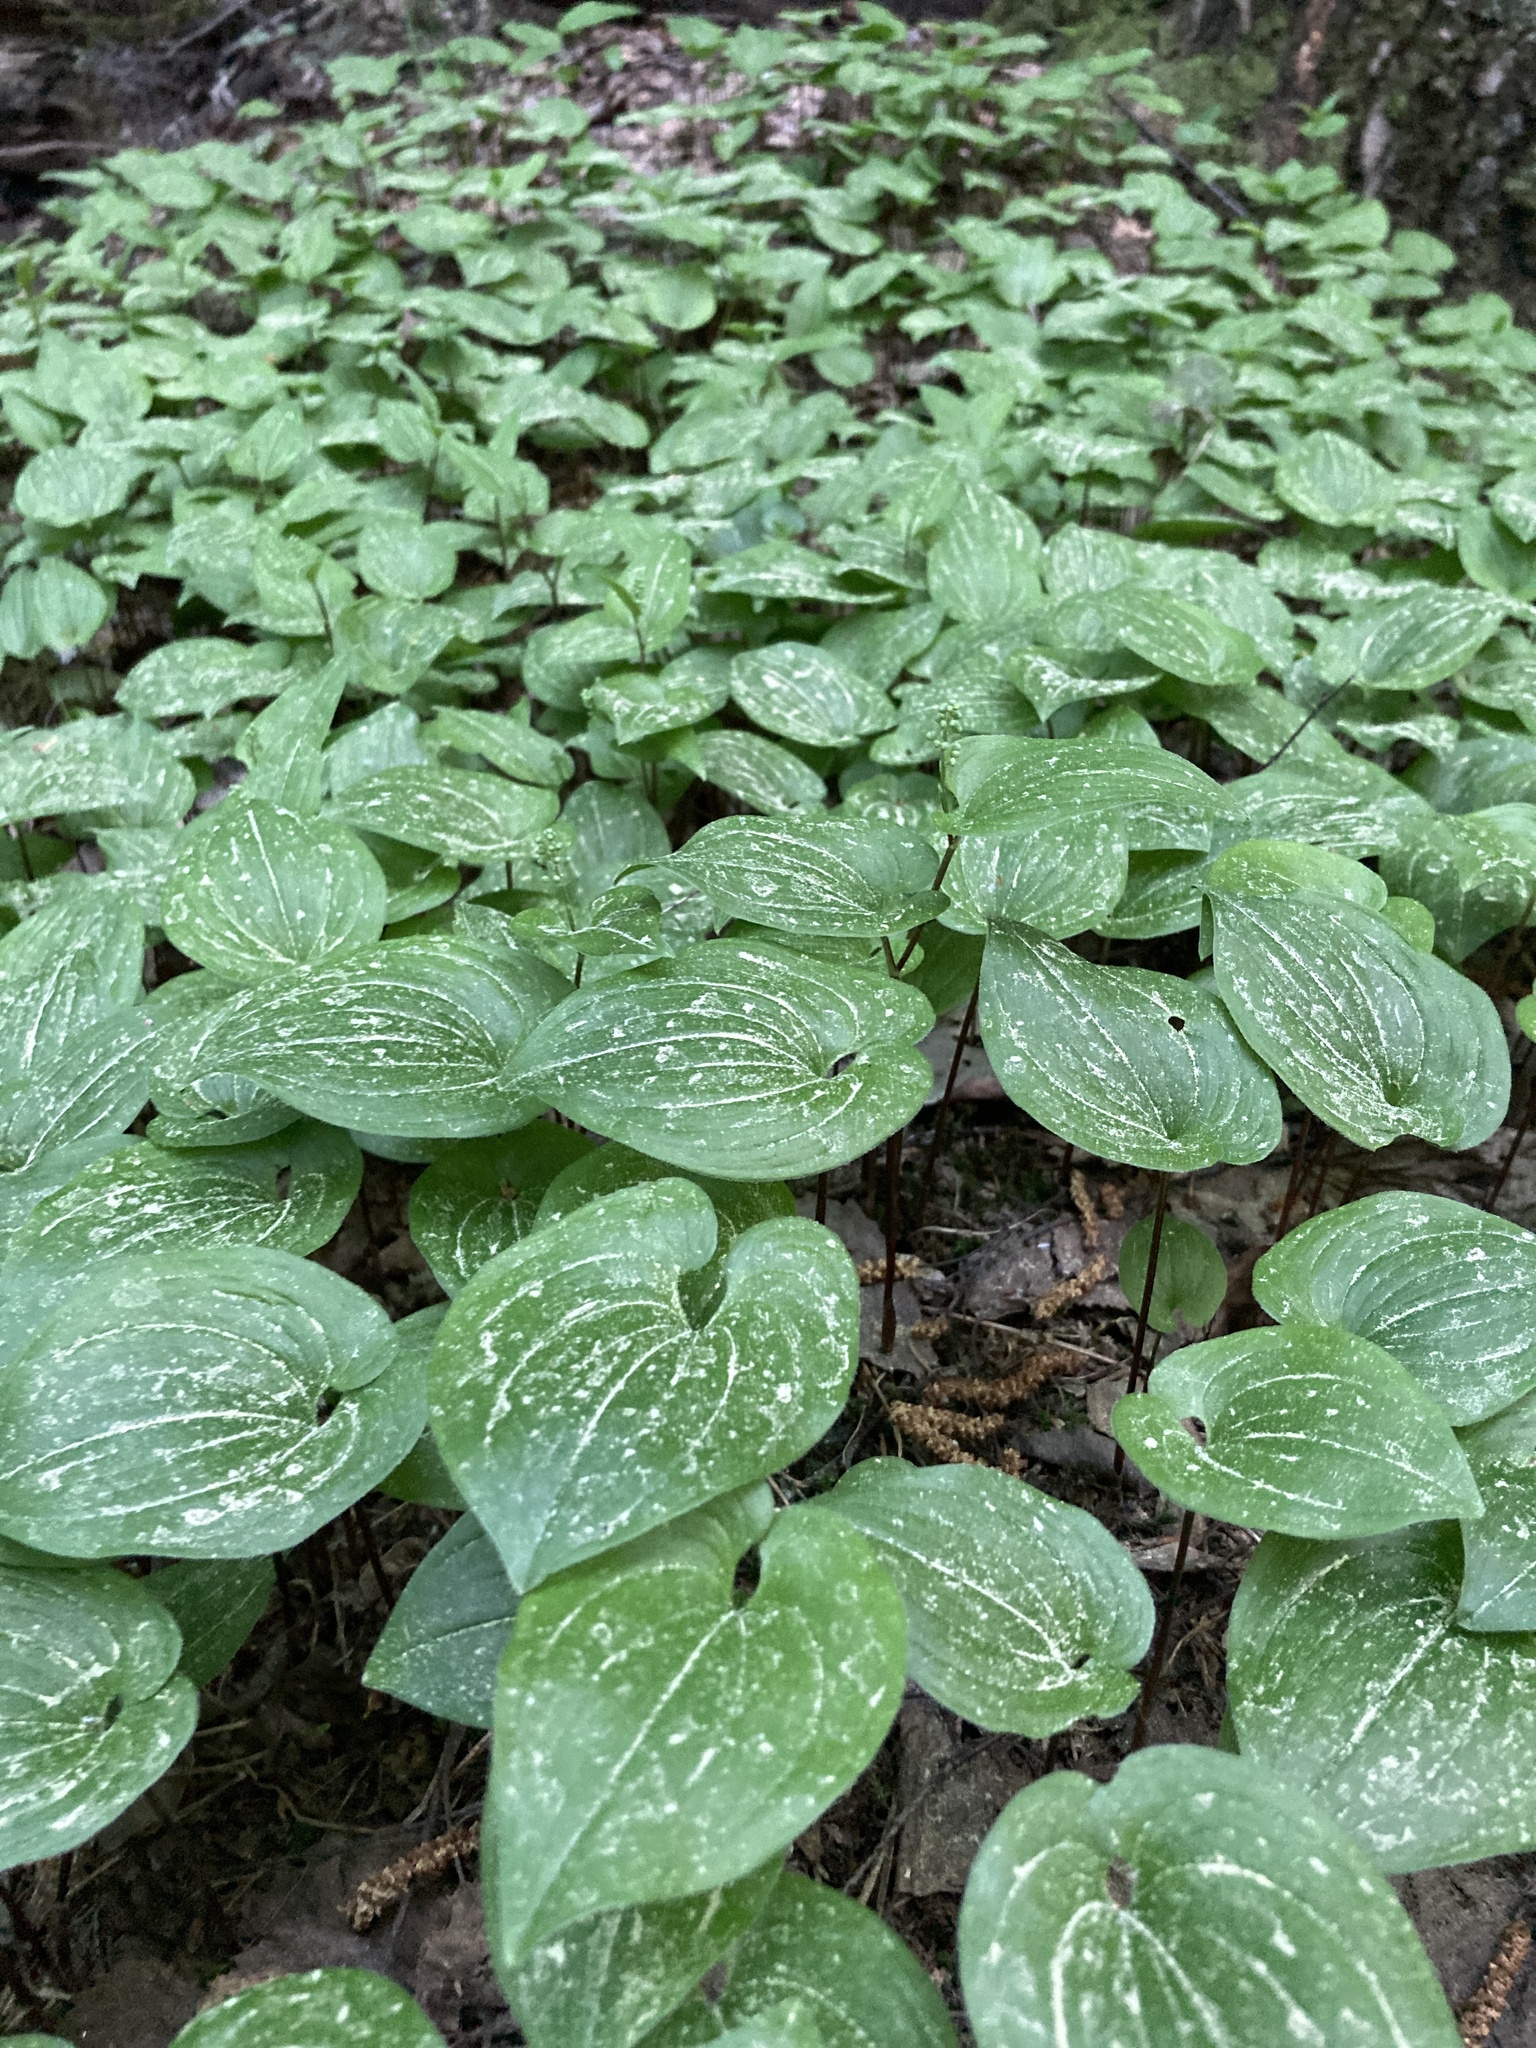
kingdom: Plantae
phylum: Tracheophyta
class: Liliopsida
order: Asparagales
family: Asparagaceae
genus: Maianthemum
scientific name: Maianthemum bifolium
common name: May lily
